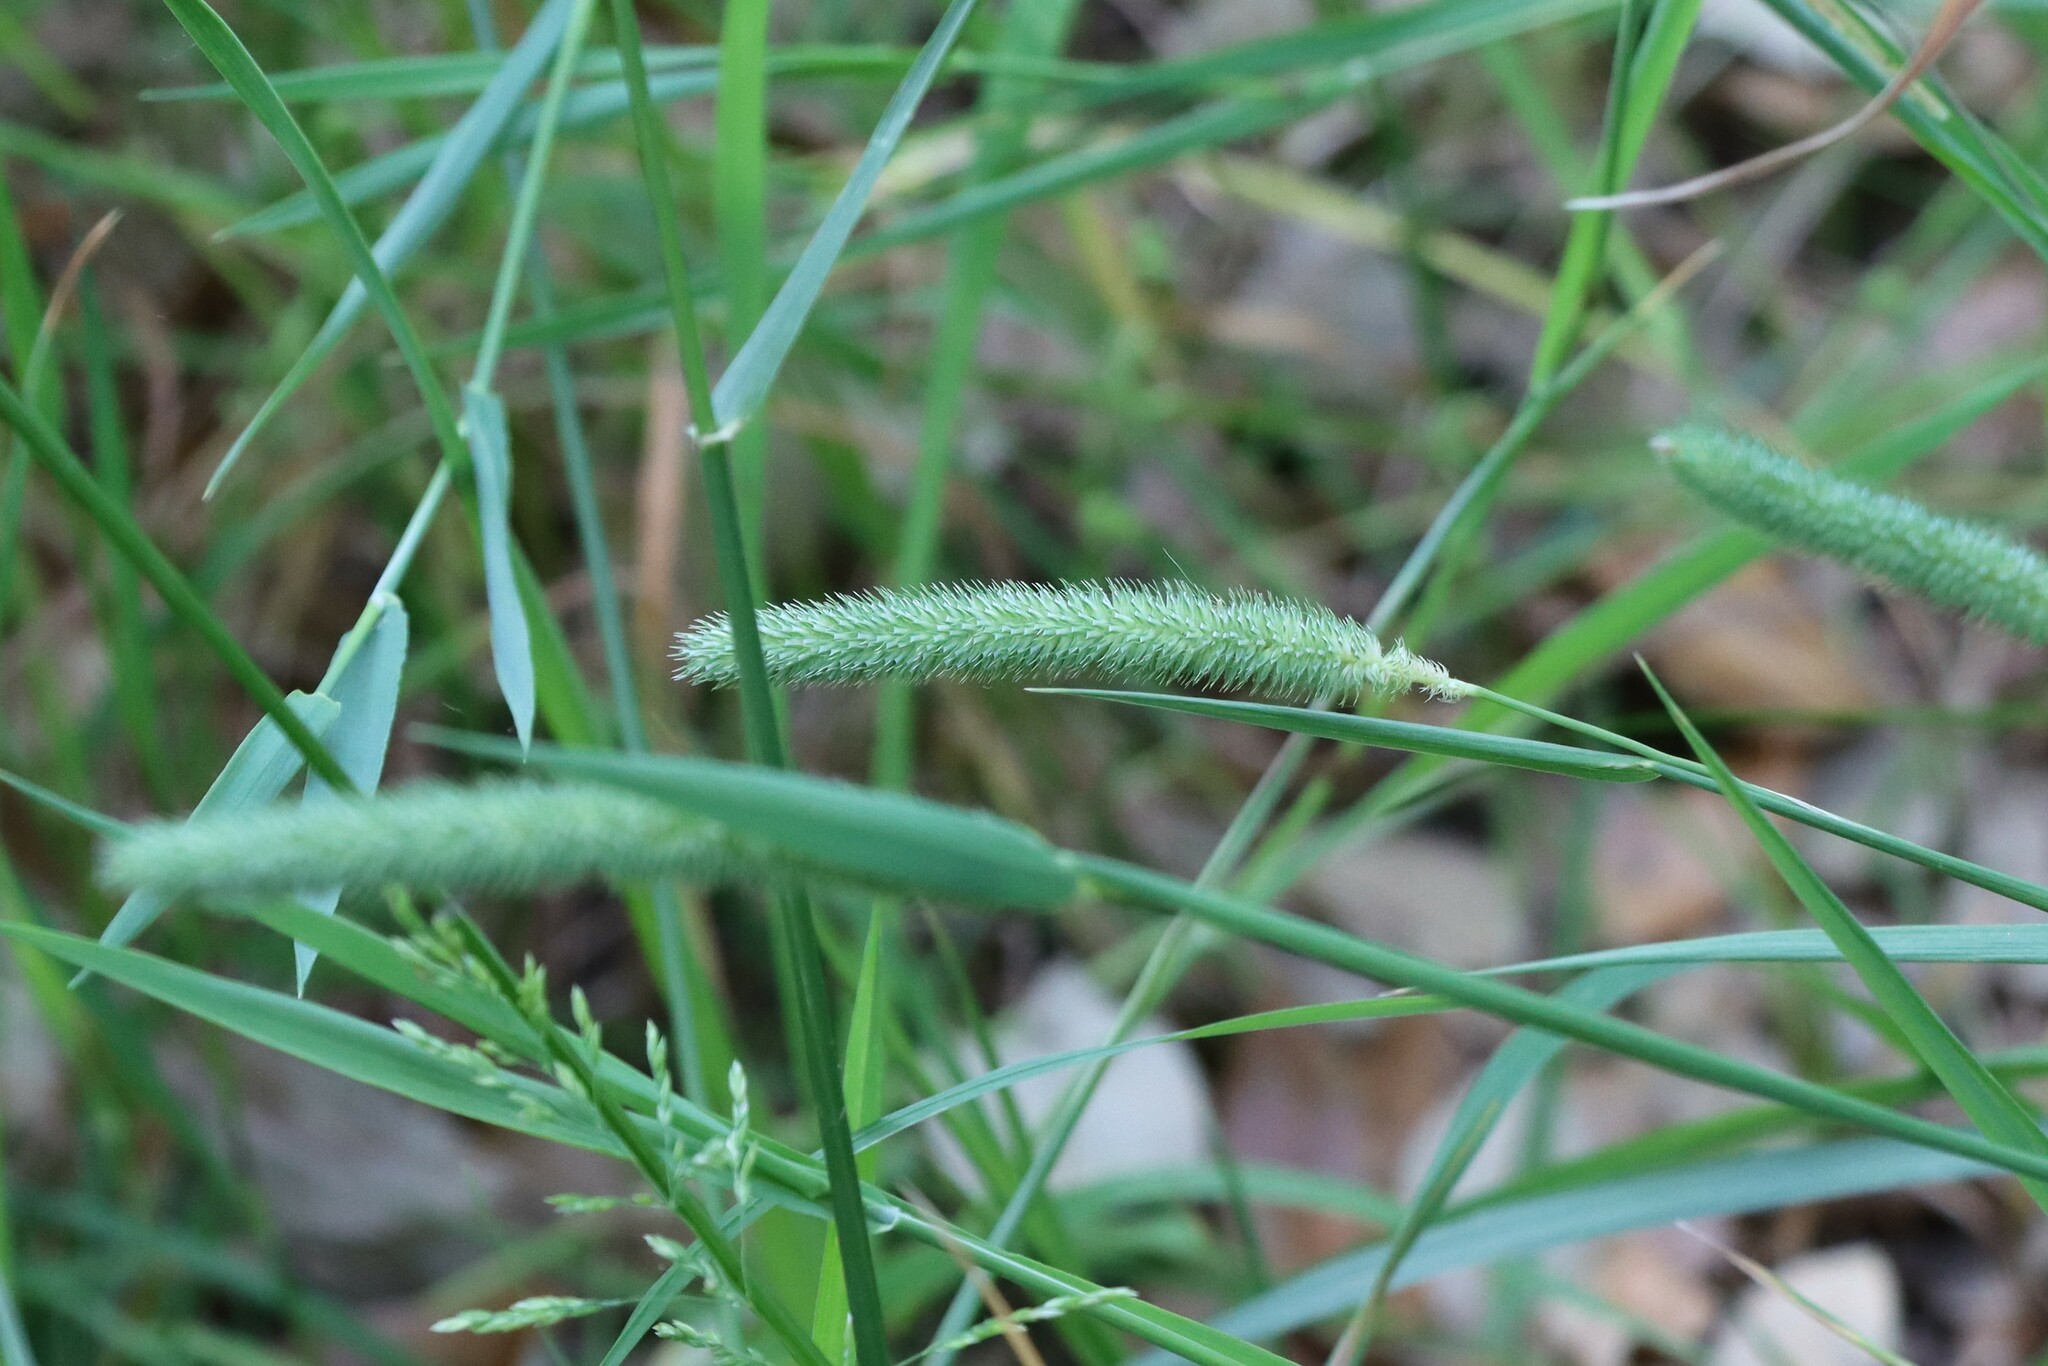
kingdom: Plantae
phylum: Tracheophyta
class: Liliopsida
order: Poales
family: Poaceae
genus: Phleum
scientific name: Phleum pratense
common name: Timothy grass
